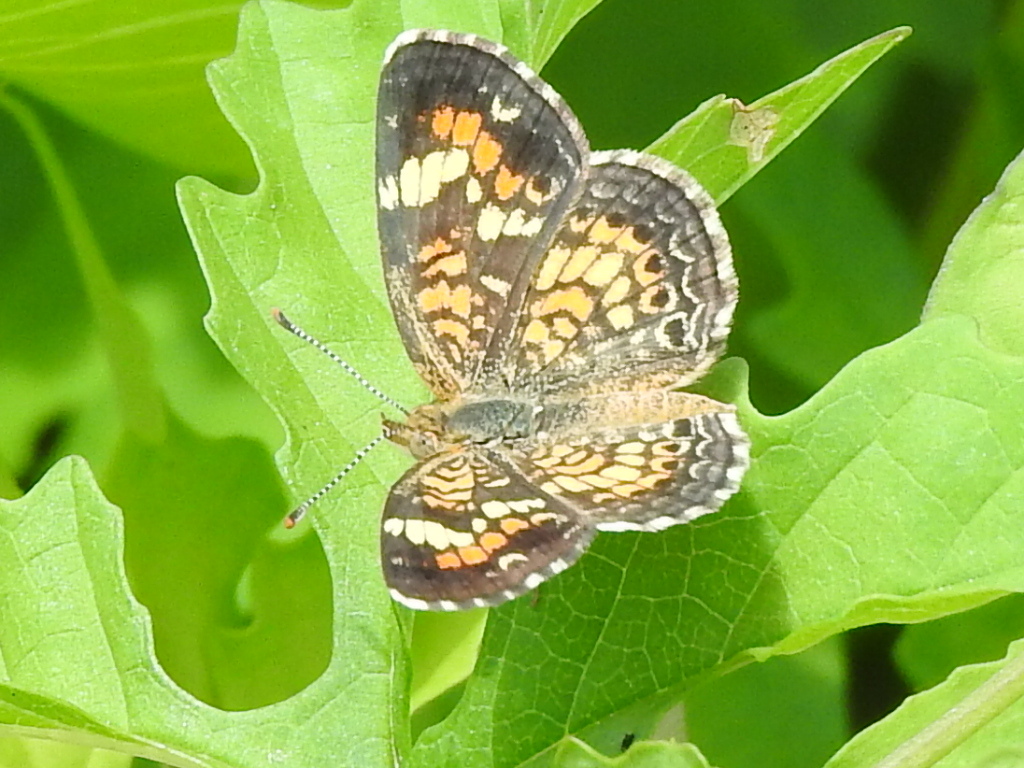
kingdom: Animalia
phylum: Arthropoda
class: Insecta
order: Lepidoptera
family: Nymphalidae
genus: Phyciodes
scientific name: Phyciodes phaon
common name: Phaon crescent
